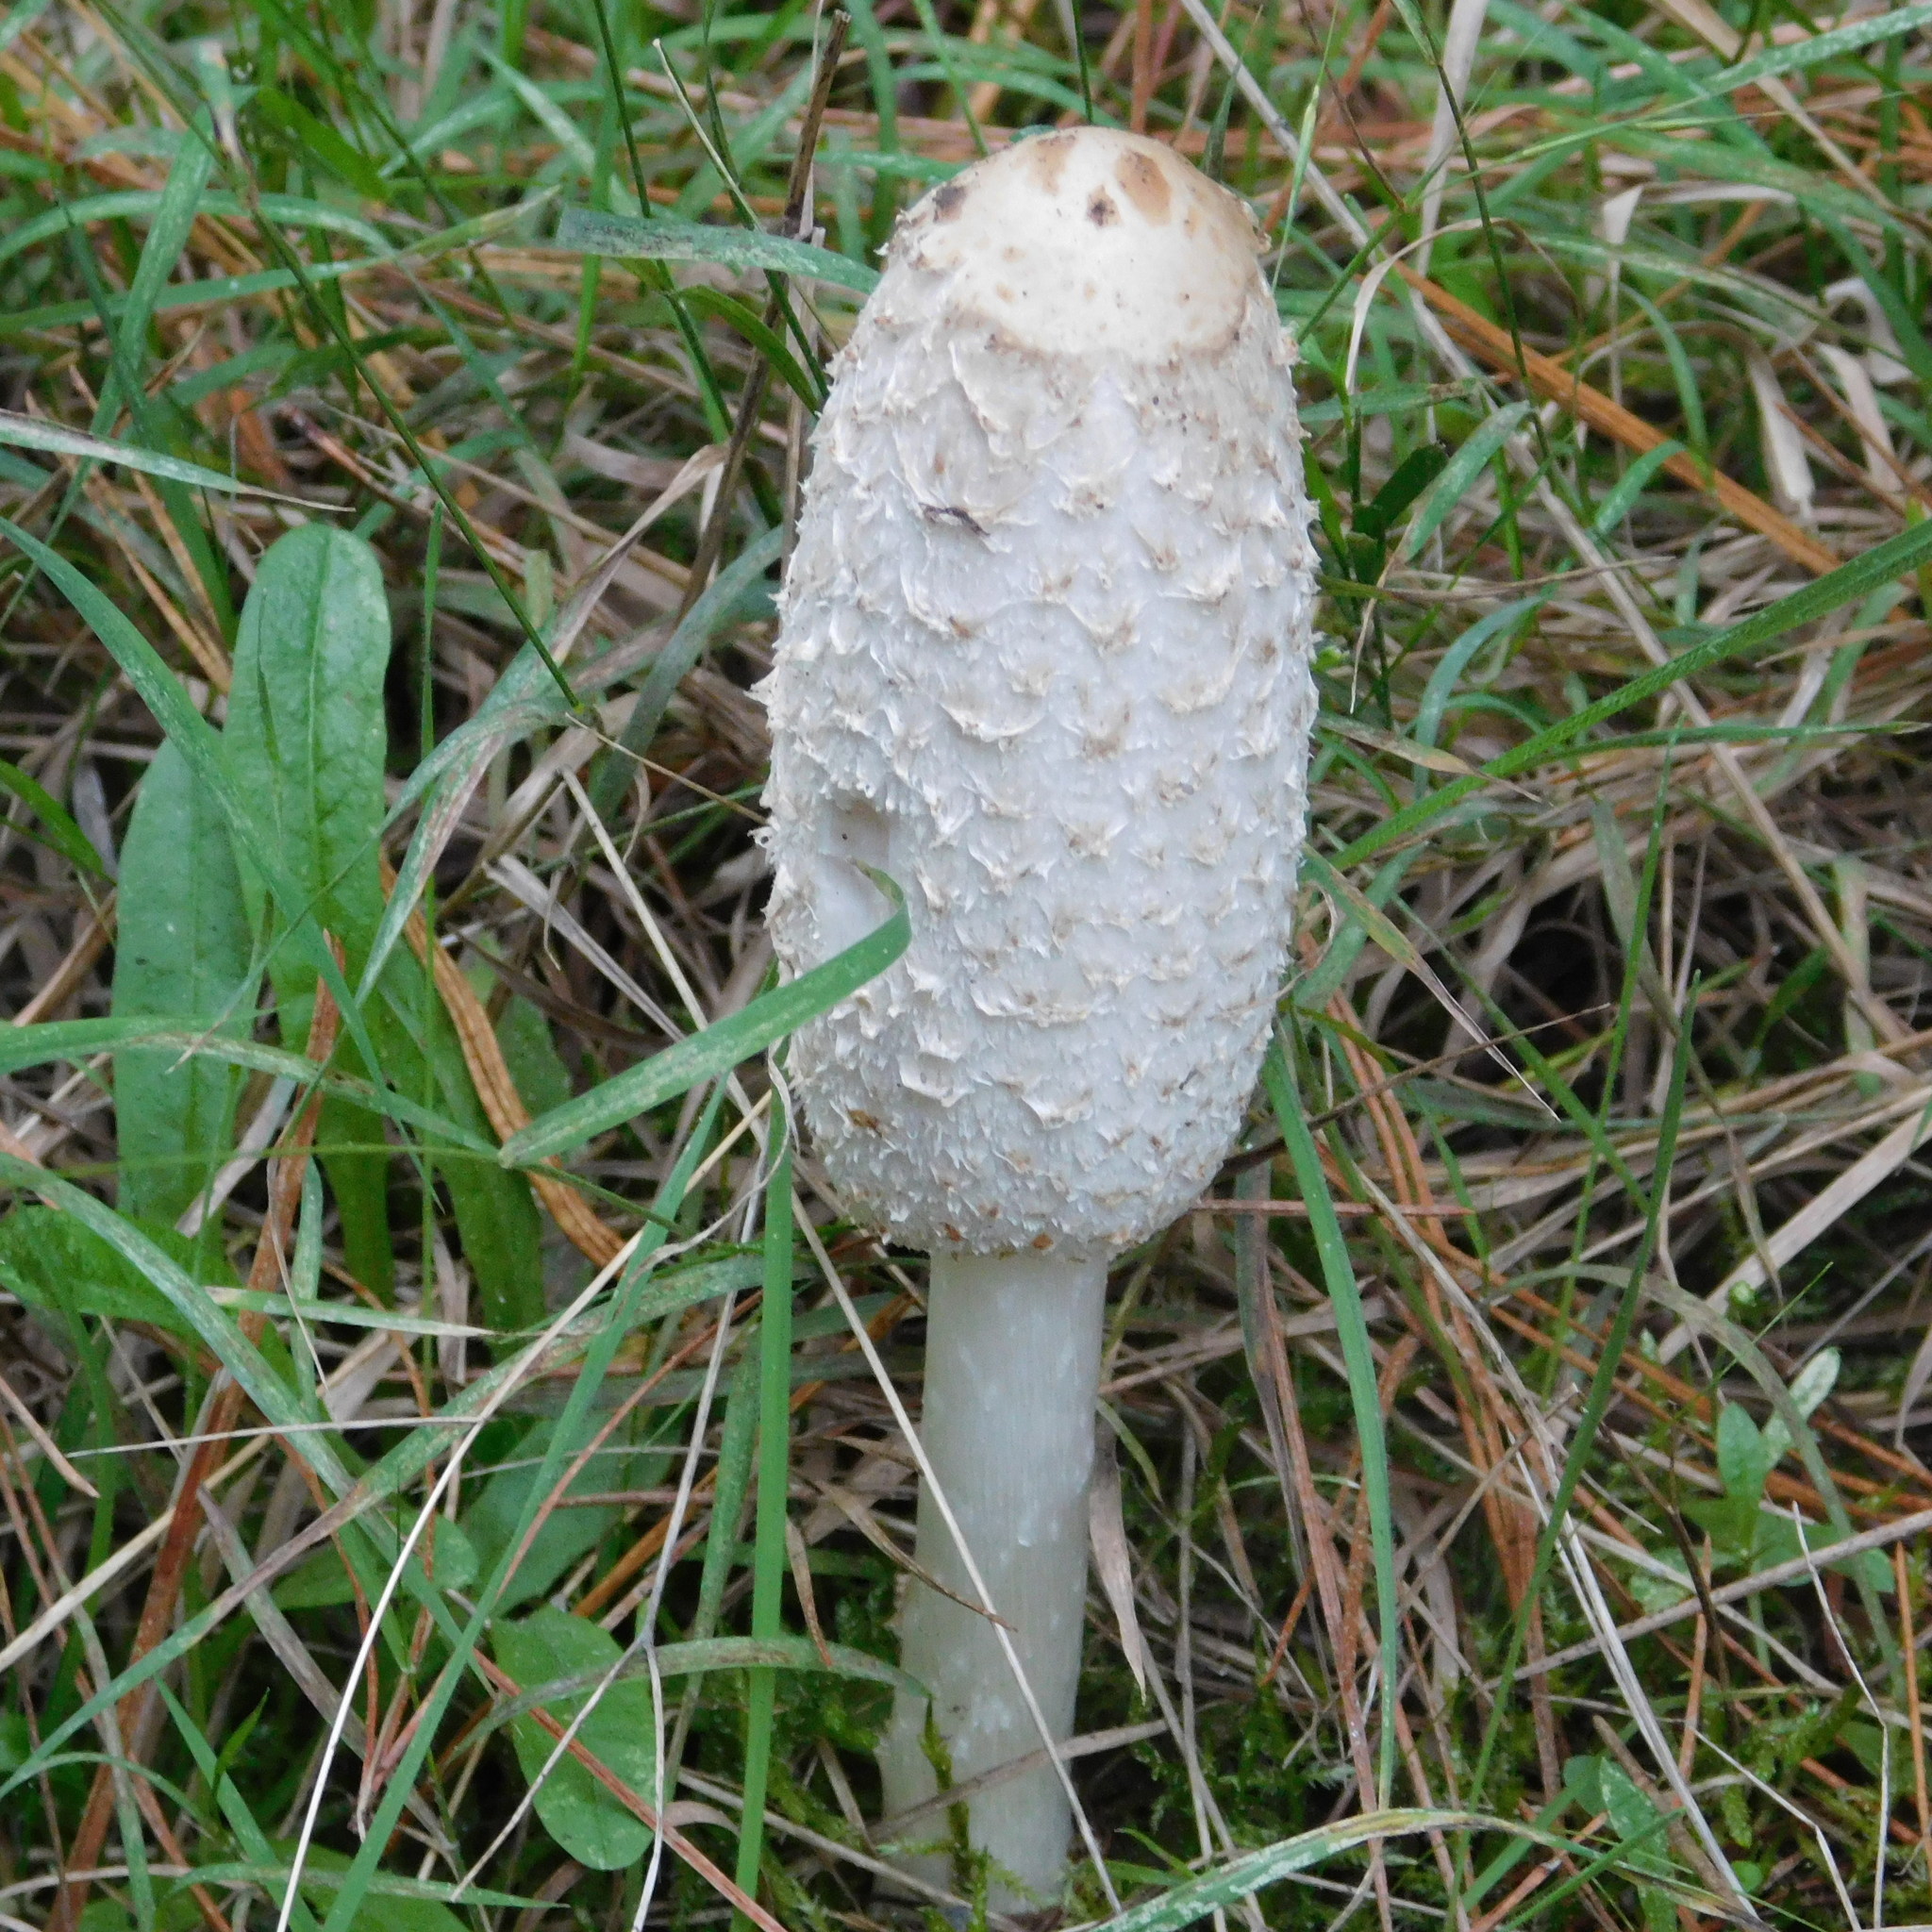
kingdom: Fungi
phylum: Basidiomycota
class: Agaricomycetes
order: Agaricales
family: Agaricaceae
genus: Coprinus
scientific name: Coprinus comatus
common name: Lawyer's wig
